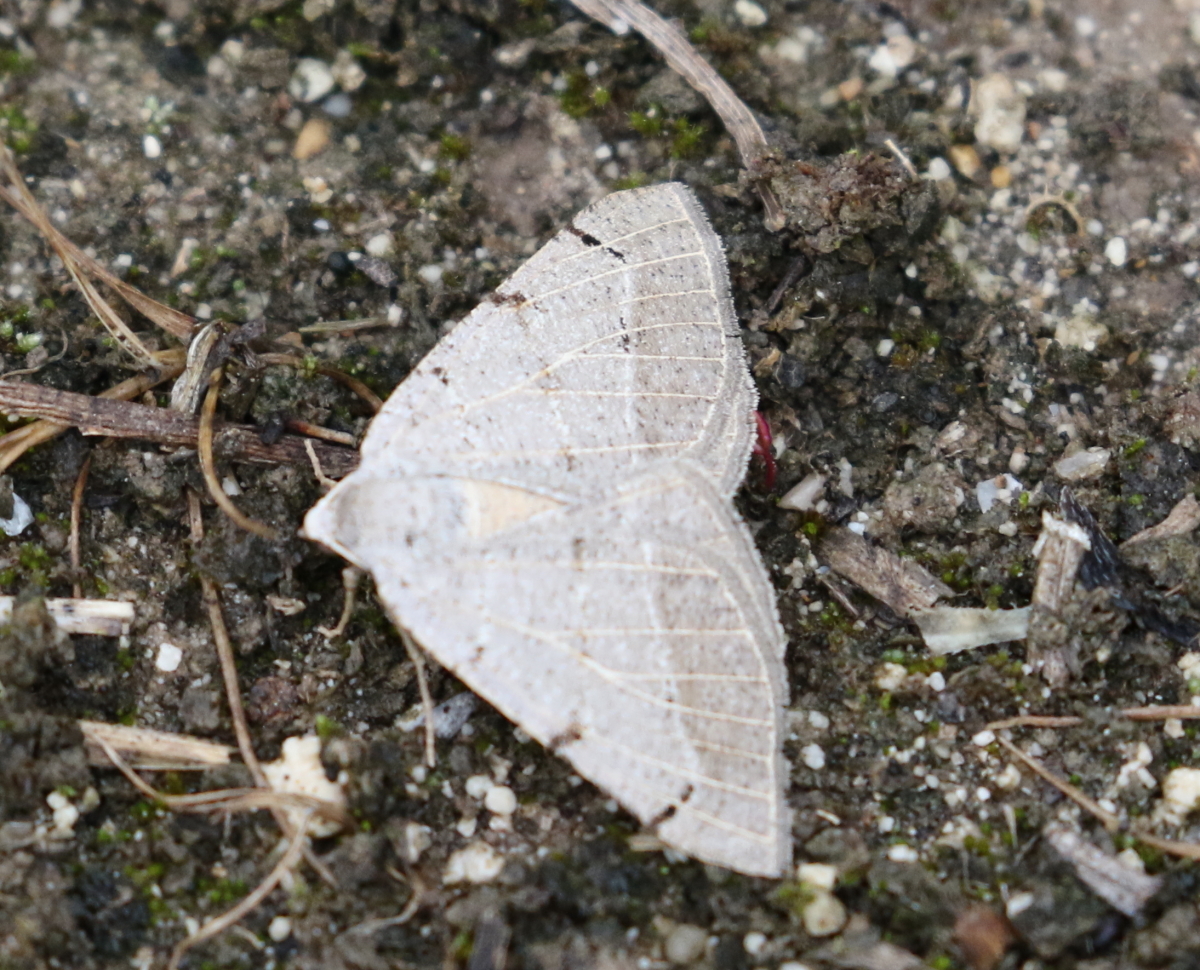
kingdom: Animalia
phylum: Arthropoda
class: Insecta
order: Lepidoptera
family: Geometridae
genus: Isturgia
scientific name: Isturgia dislocaria
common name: Pale-viened enconista
